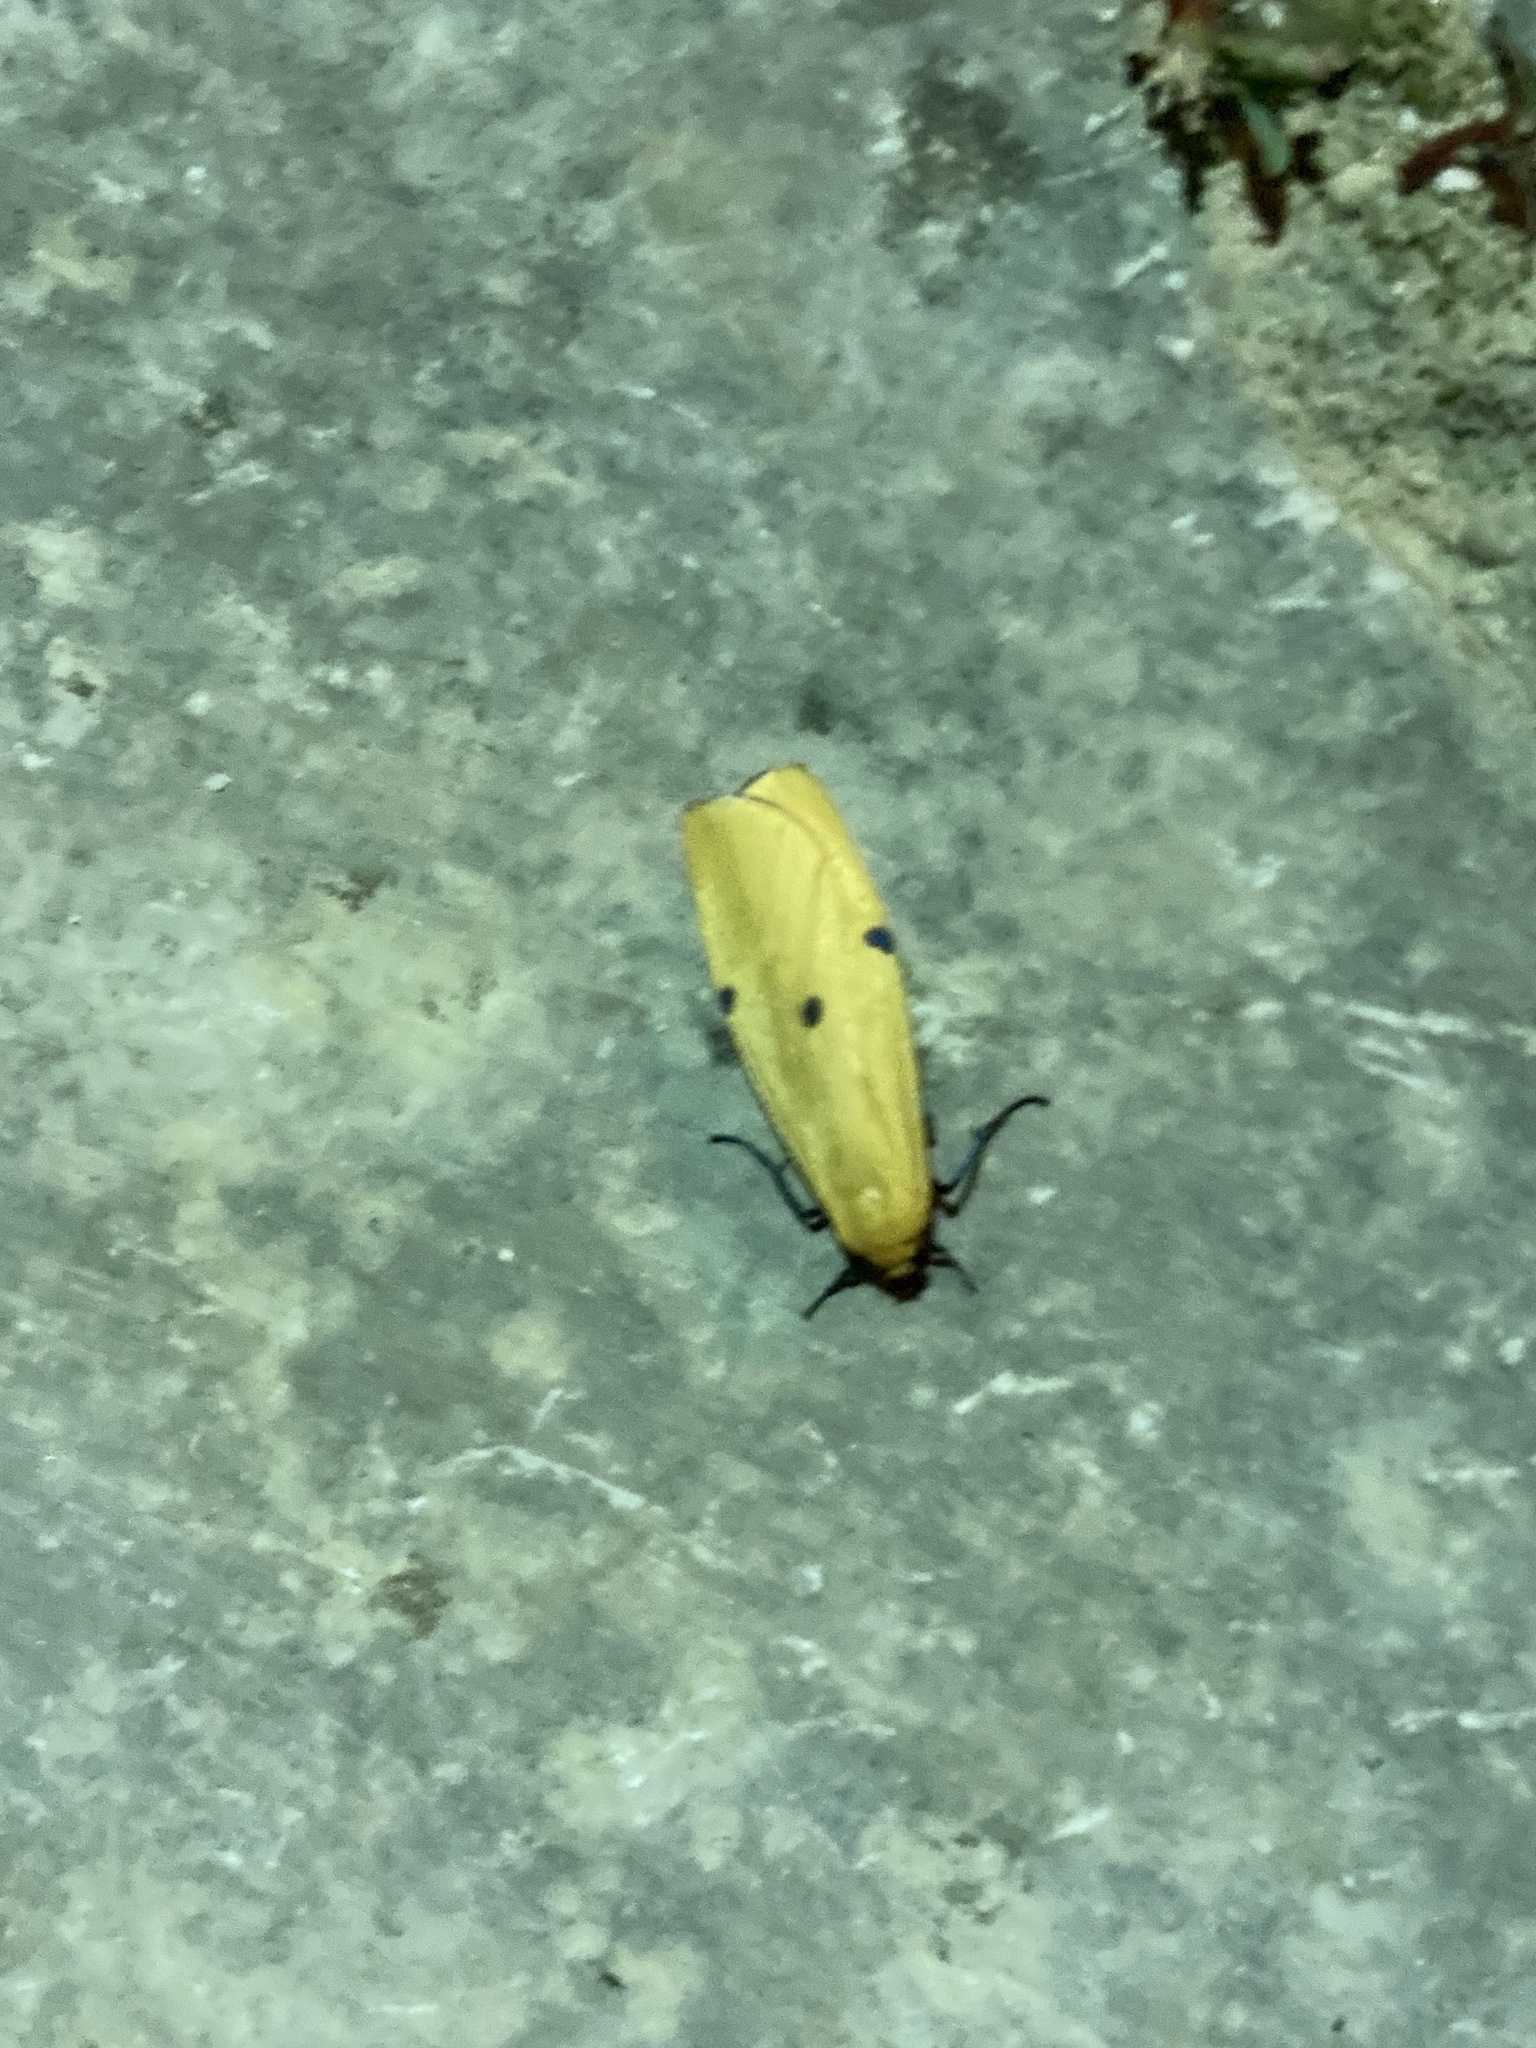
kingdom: Animalia
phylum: Arthropoda
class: Insecta
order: Lepidoptera
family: Erebidae
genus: Lithosia
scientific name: Lithosia quadra
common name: Four-spotted footman
